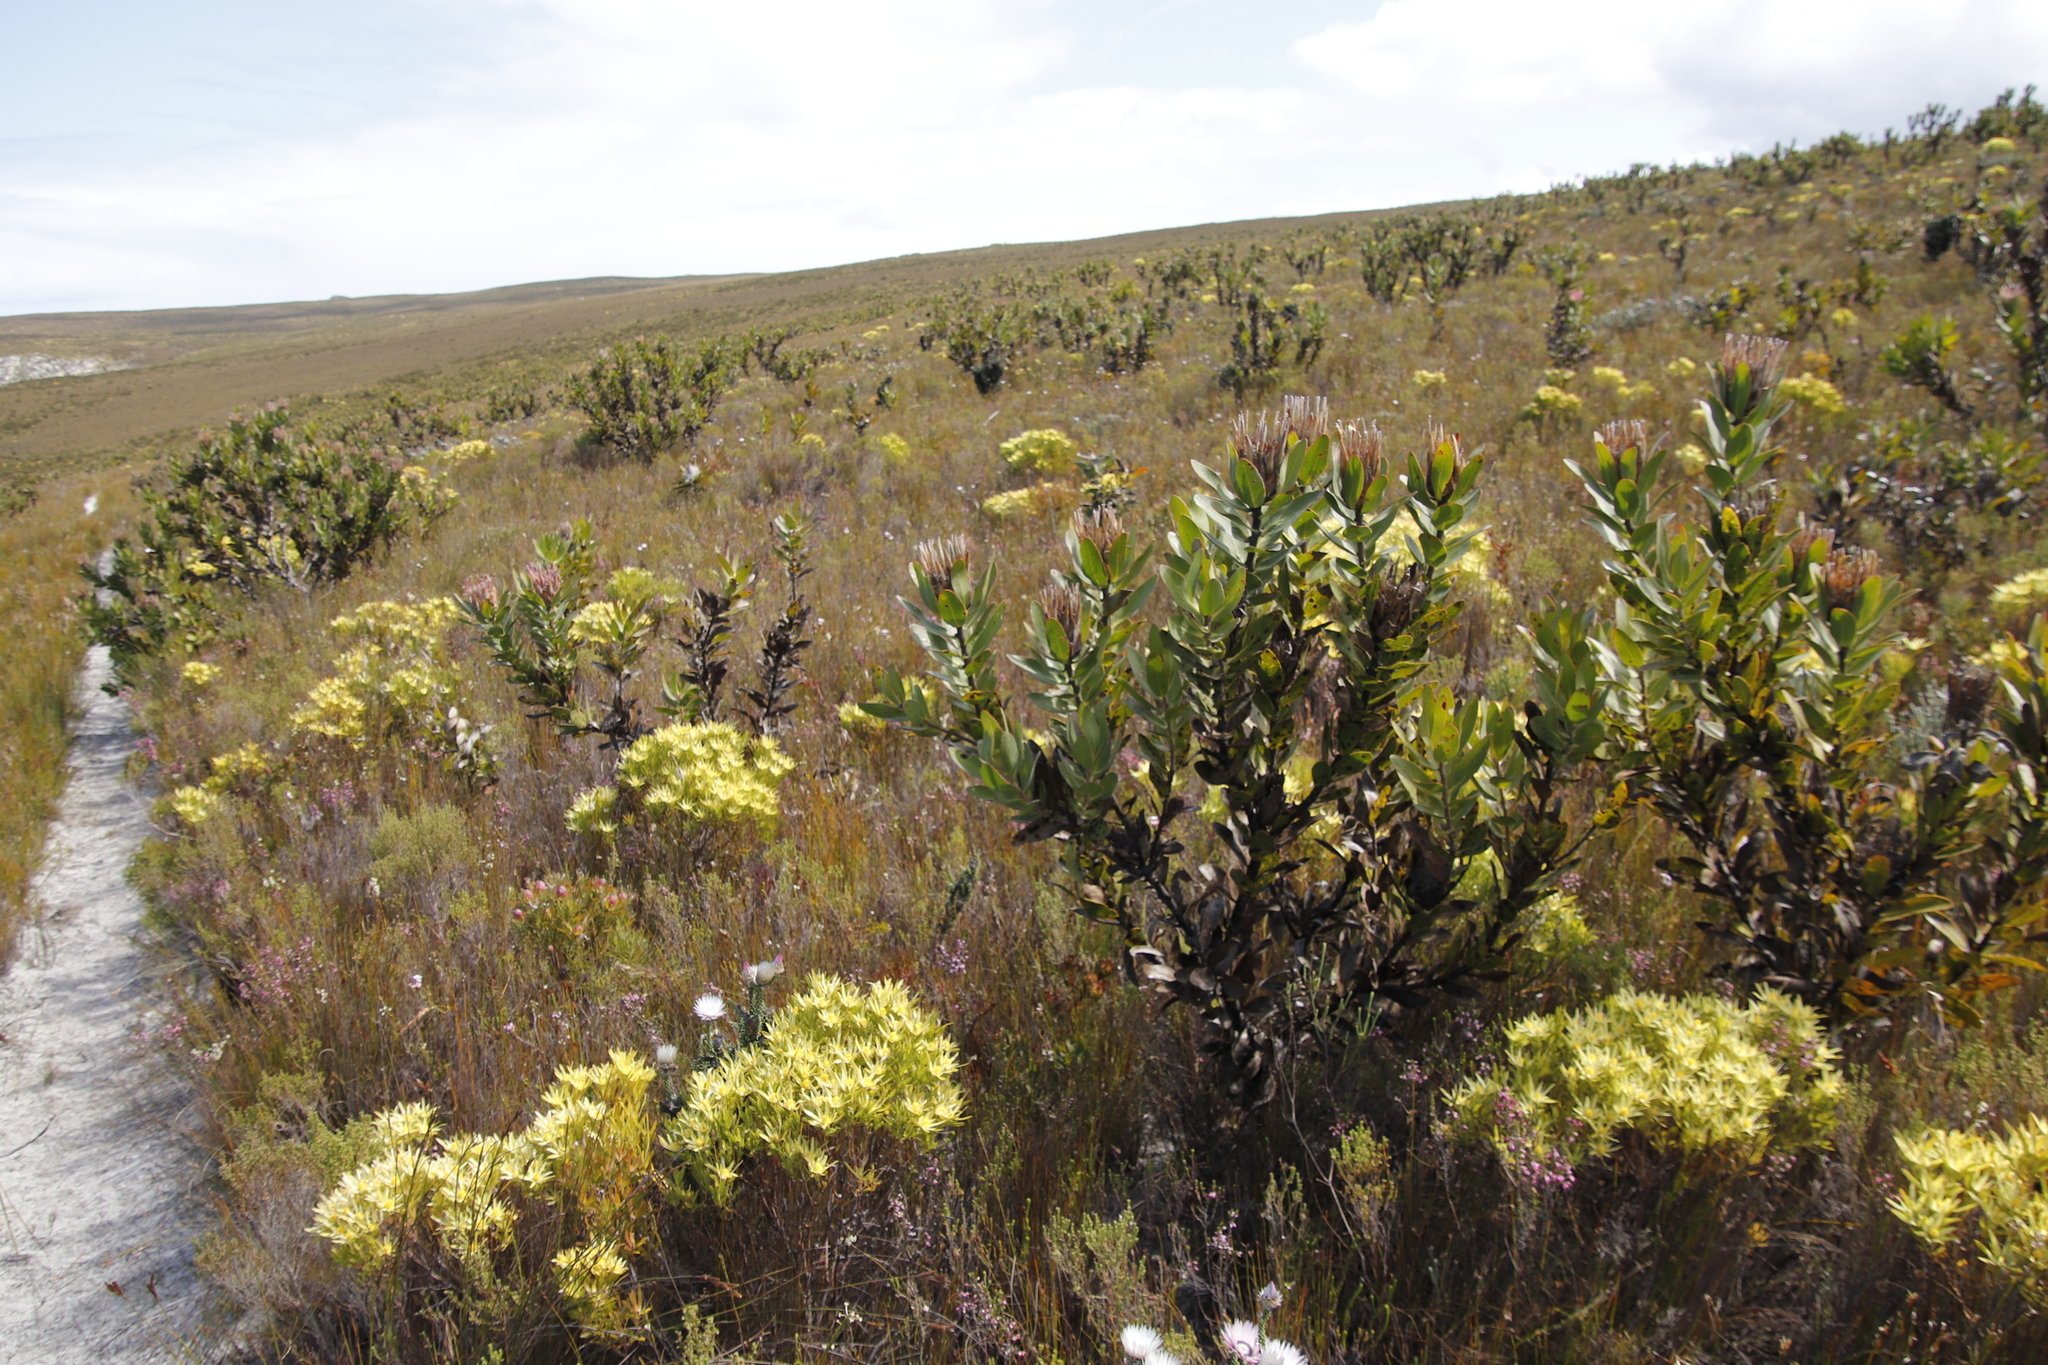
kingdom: Plantae
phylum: Tracheophyta
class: Magnoliopsida
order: Proteales
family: Proteaceae
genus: Protea
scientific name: Protea compacta
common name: Bot river protea
